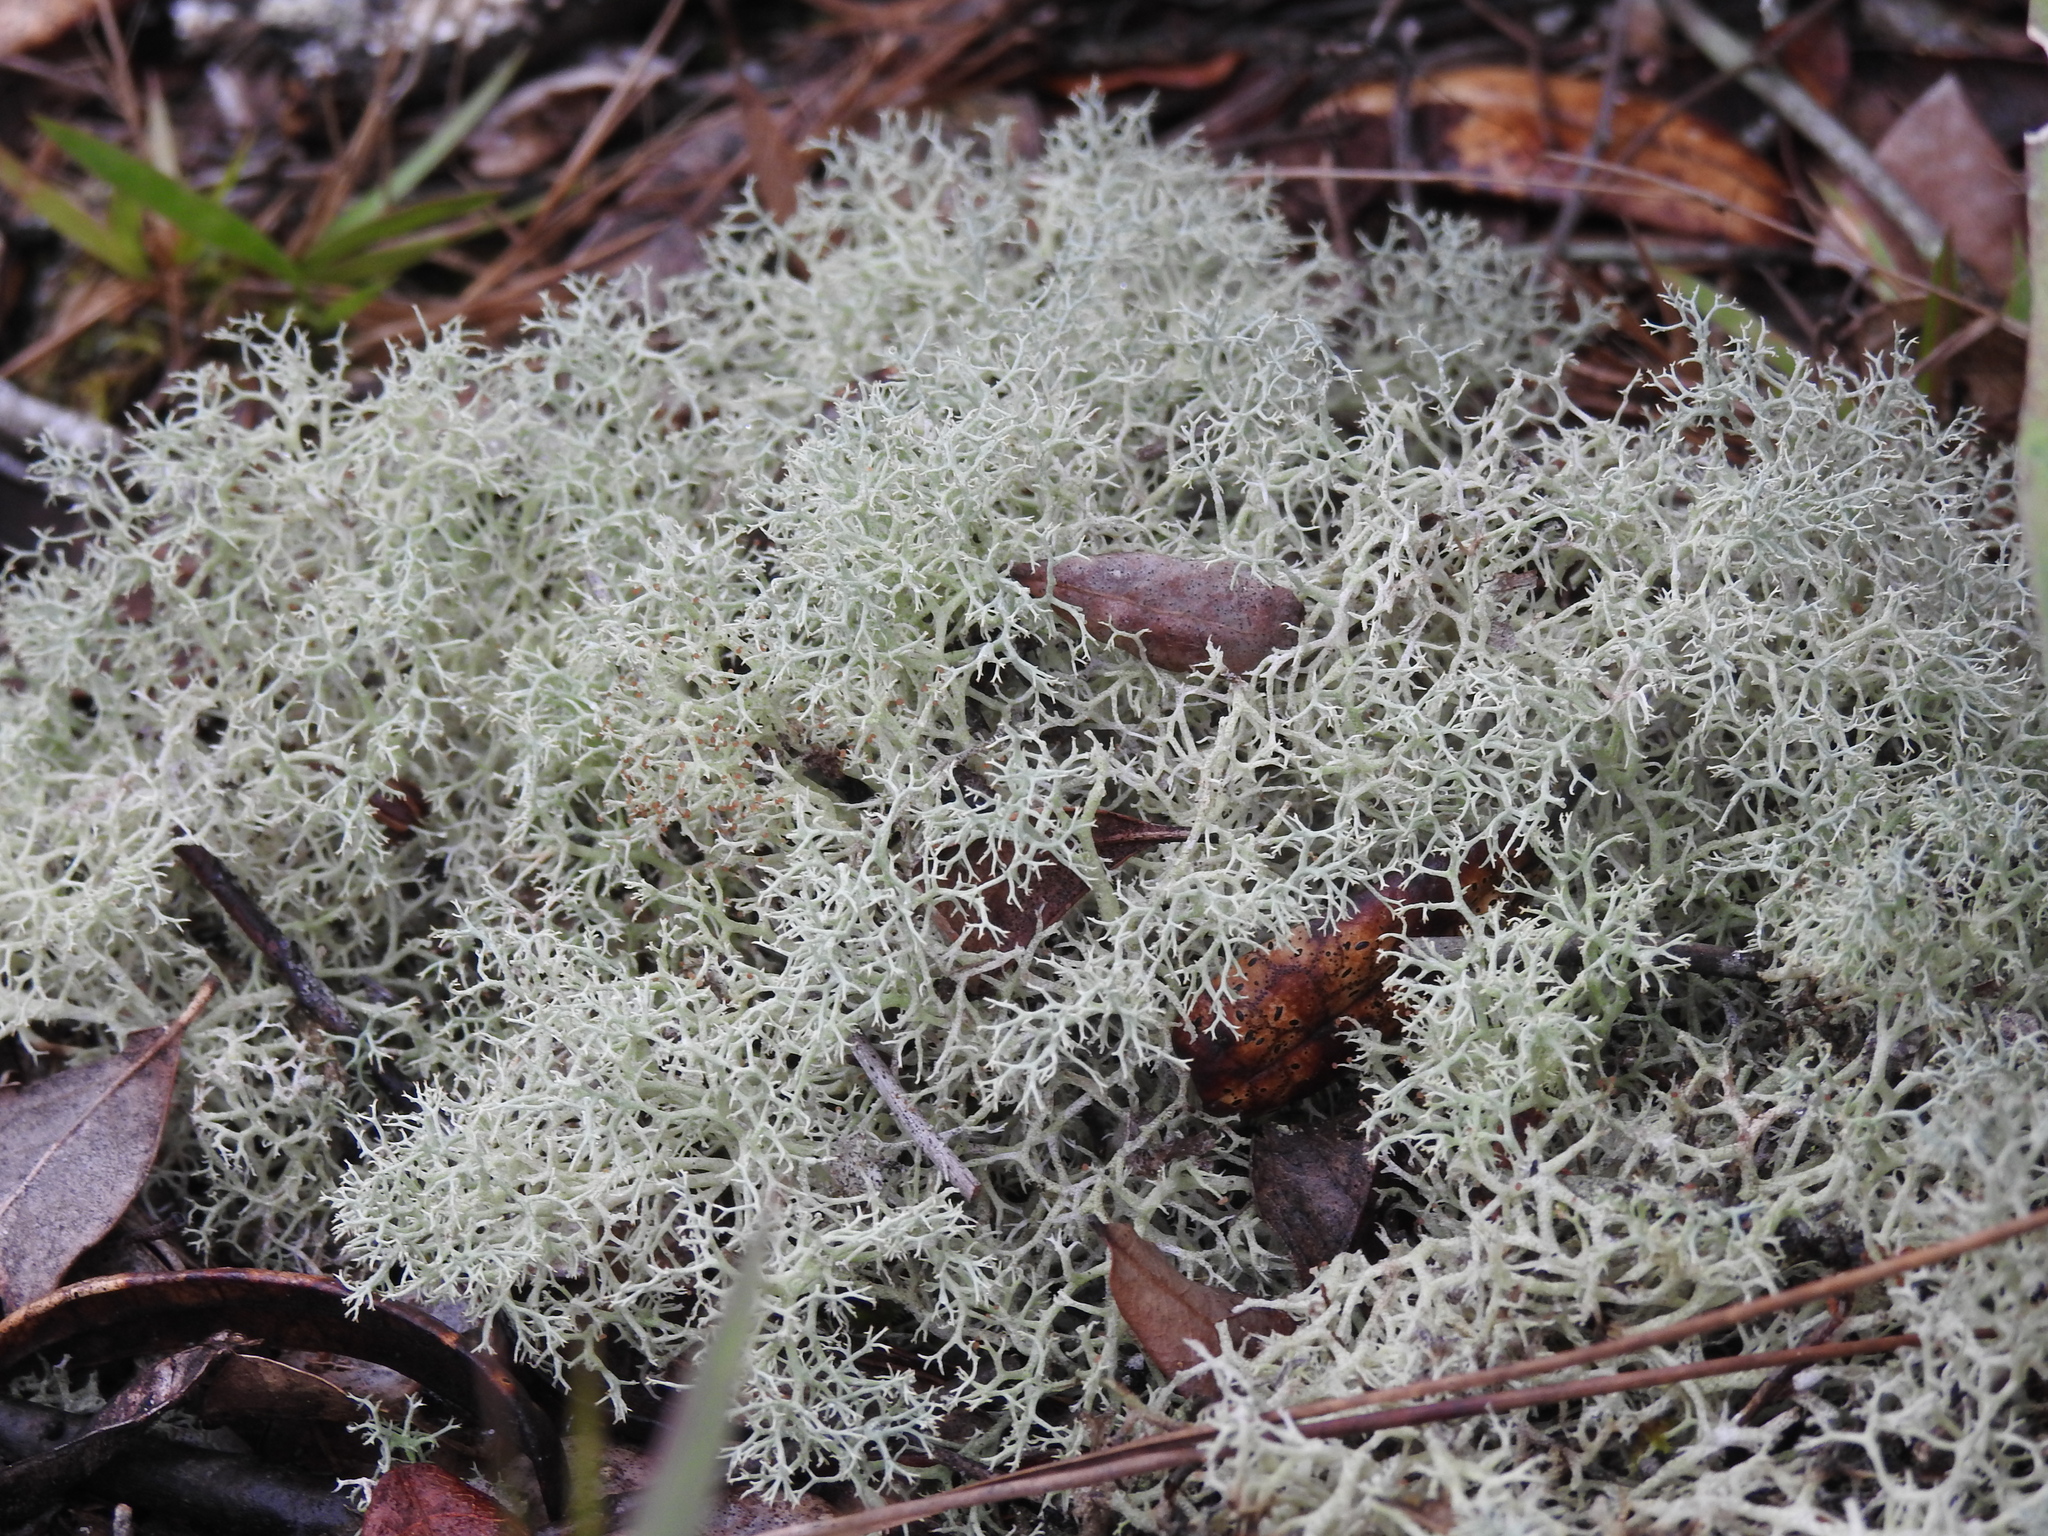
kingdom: Fungi
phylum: Ascomycota
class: Lecanoromycetes
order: Lecanorales
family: Cladoniaceae
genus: Cladonia
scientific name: Cladonia subtenuis
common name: Dixie reindeer lichen
